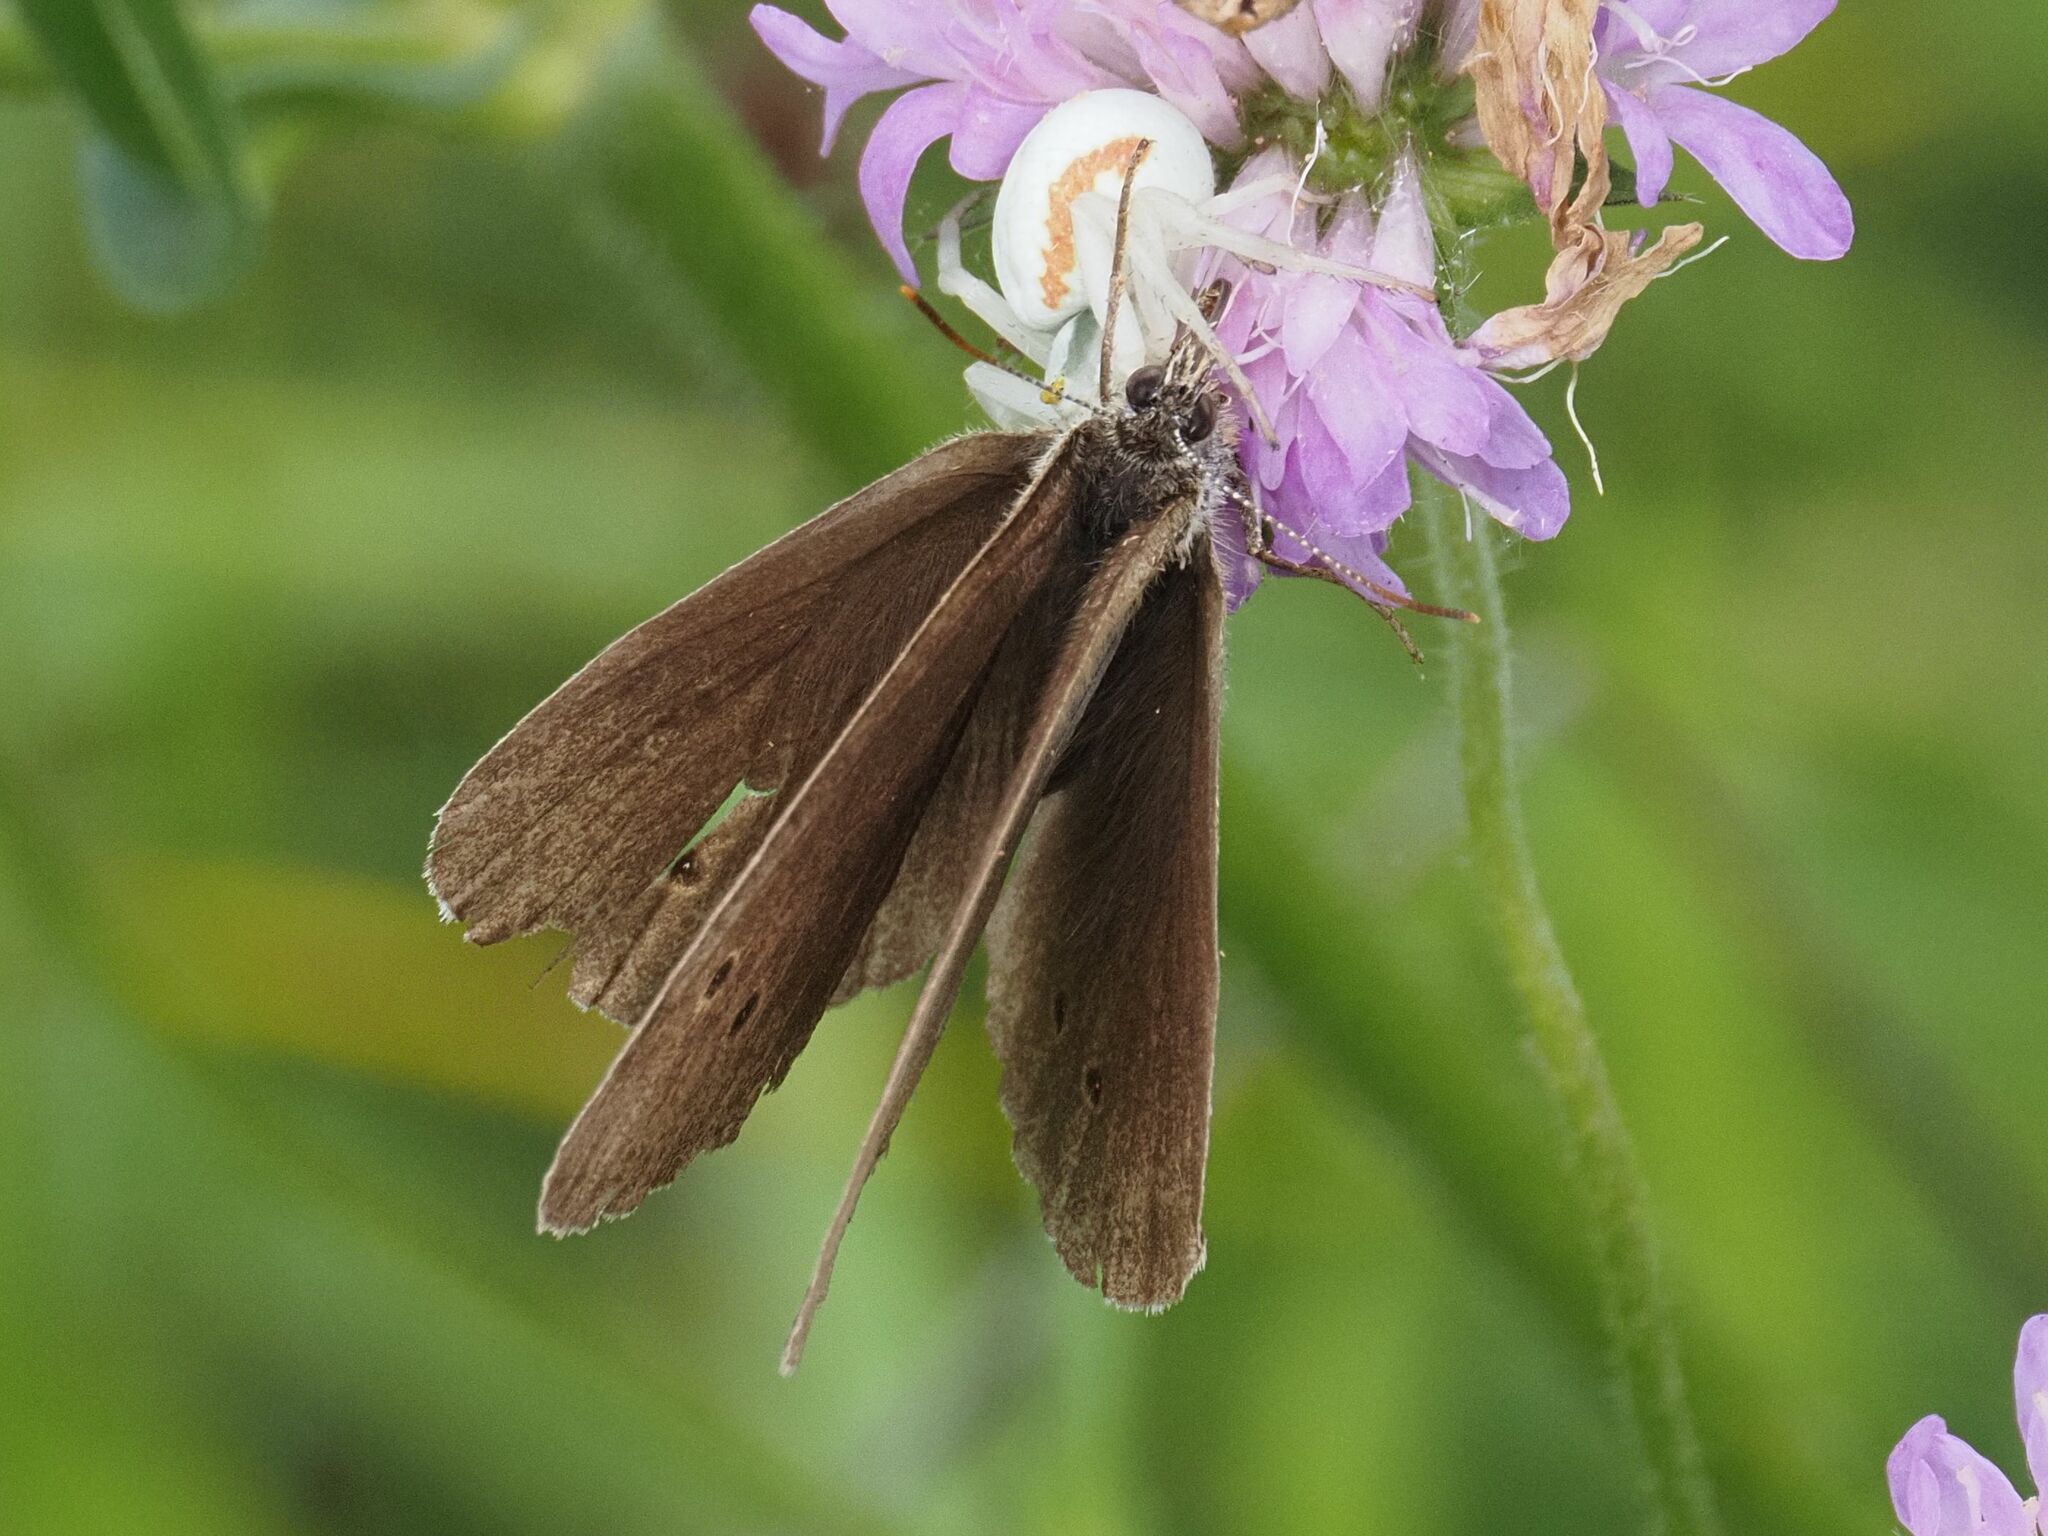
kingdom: Animalia
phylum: Arthropoda
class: Insecta
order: Lepidoptera
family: Nymphalidae
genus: Aphantopus
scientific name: Aphantopus hyperantus
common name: Ringlet
